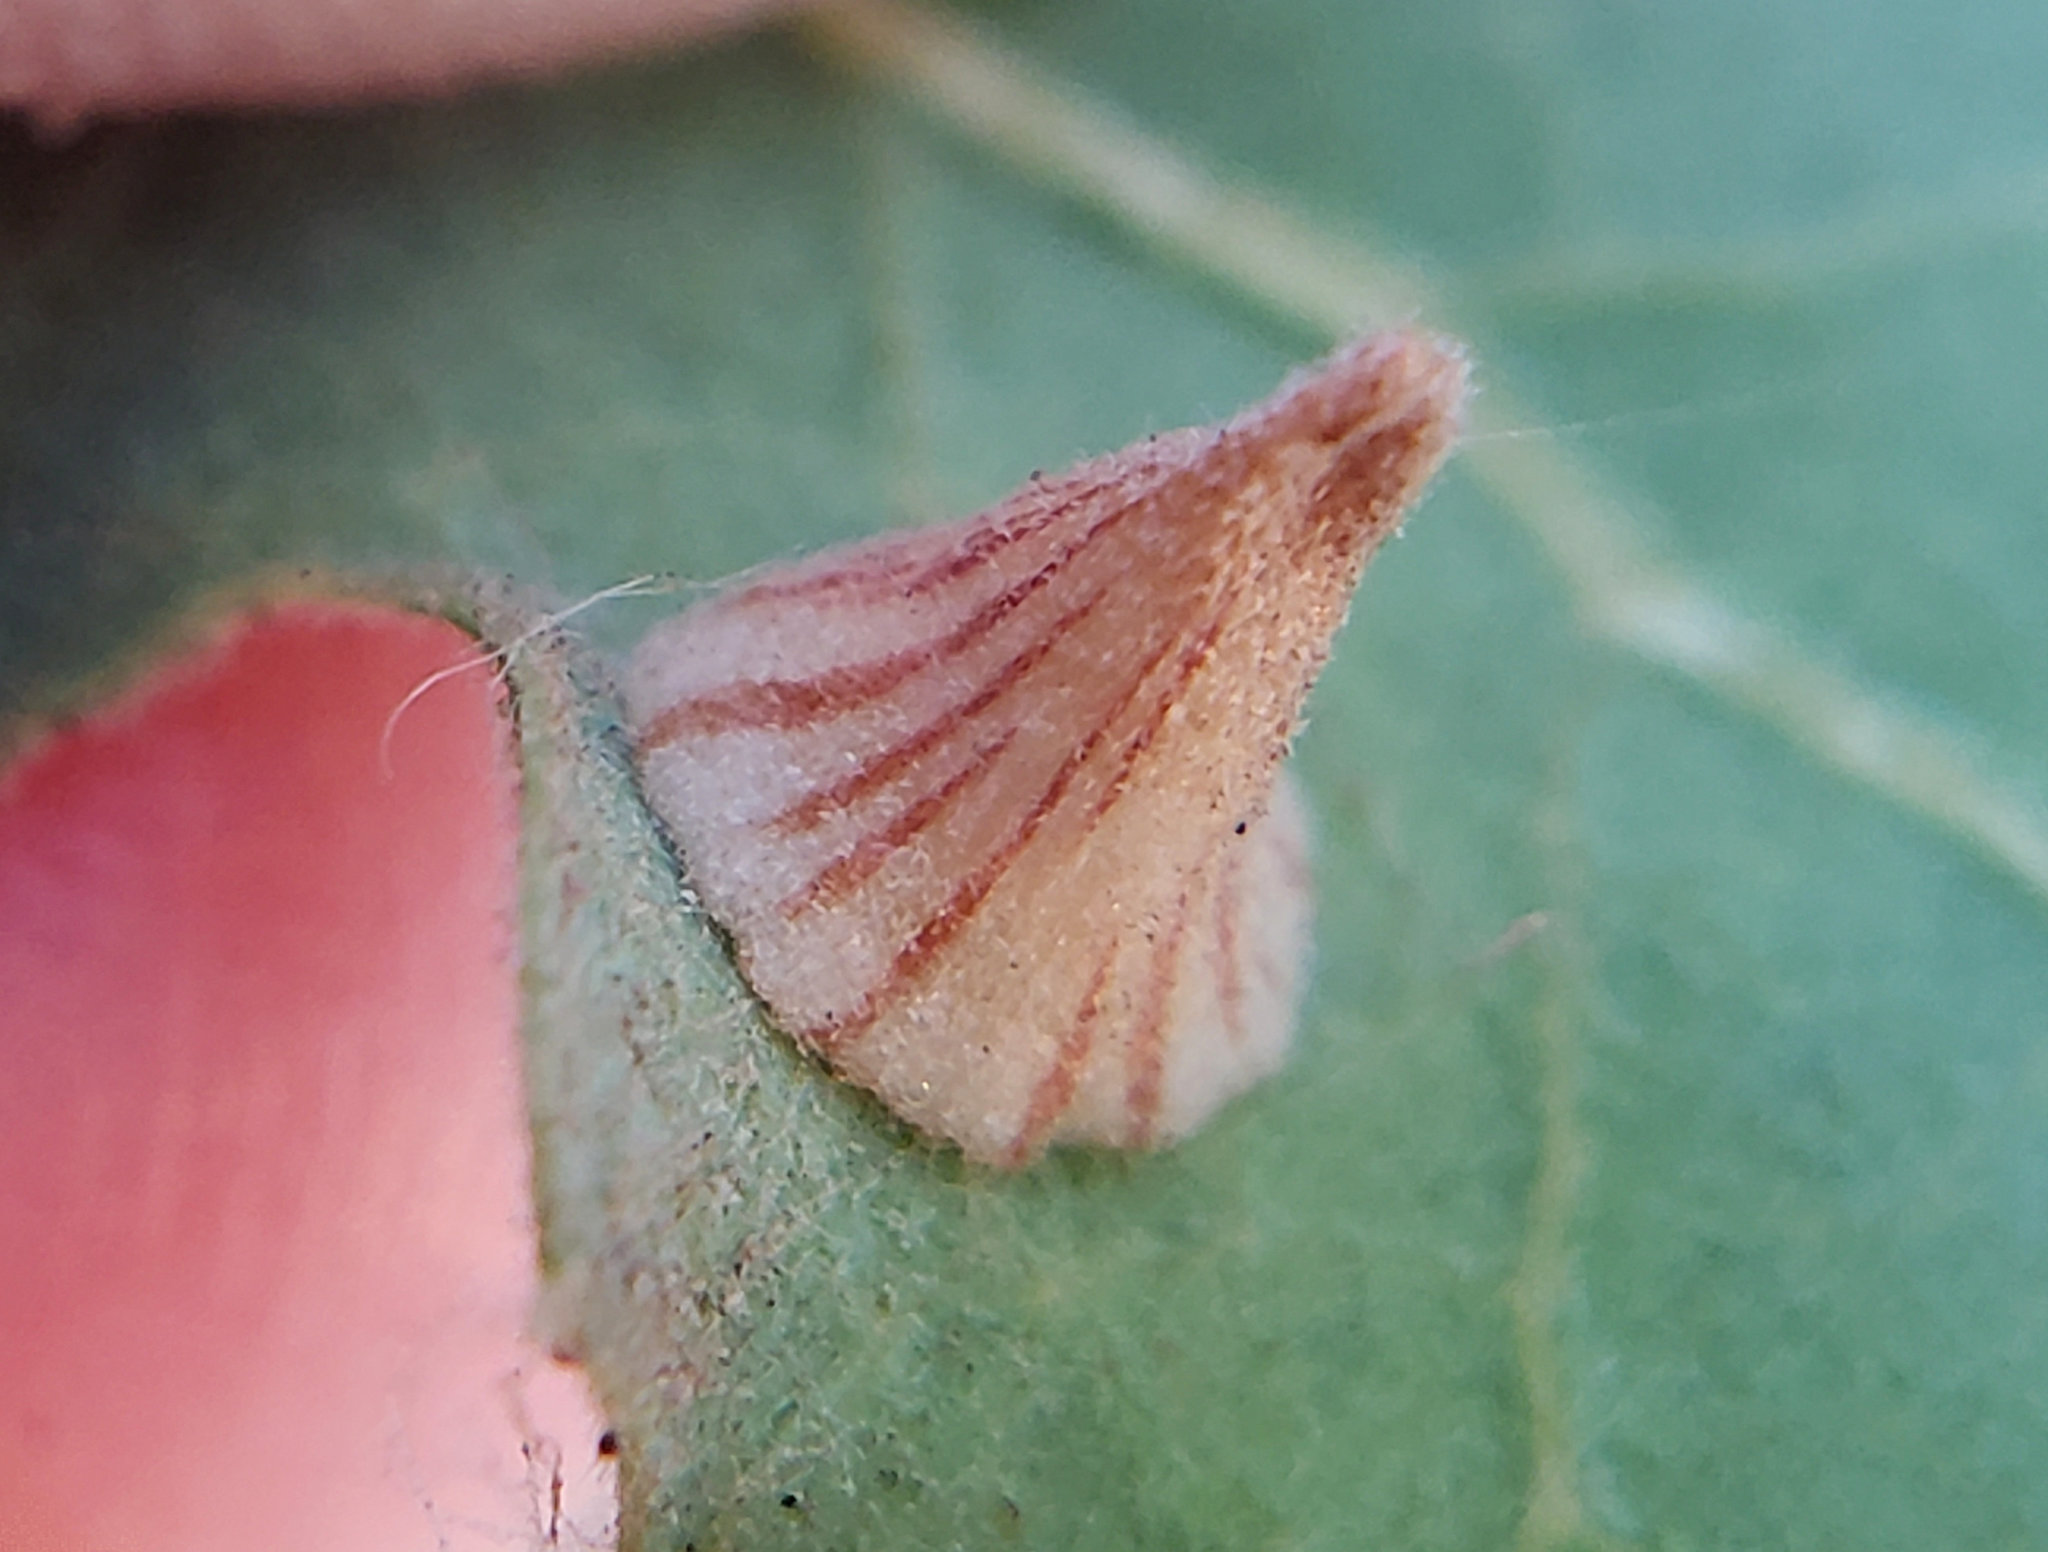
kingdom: Animalia
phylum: Arthropoda
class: Insecta
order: Hymenoptera
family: Cynipidae
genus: Andricus
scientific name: Andricus
